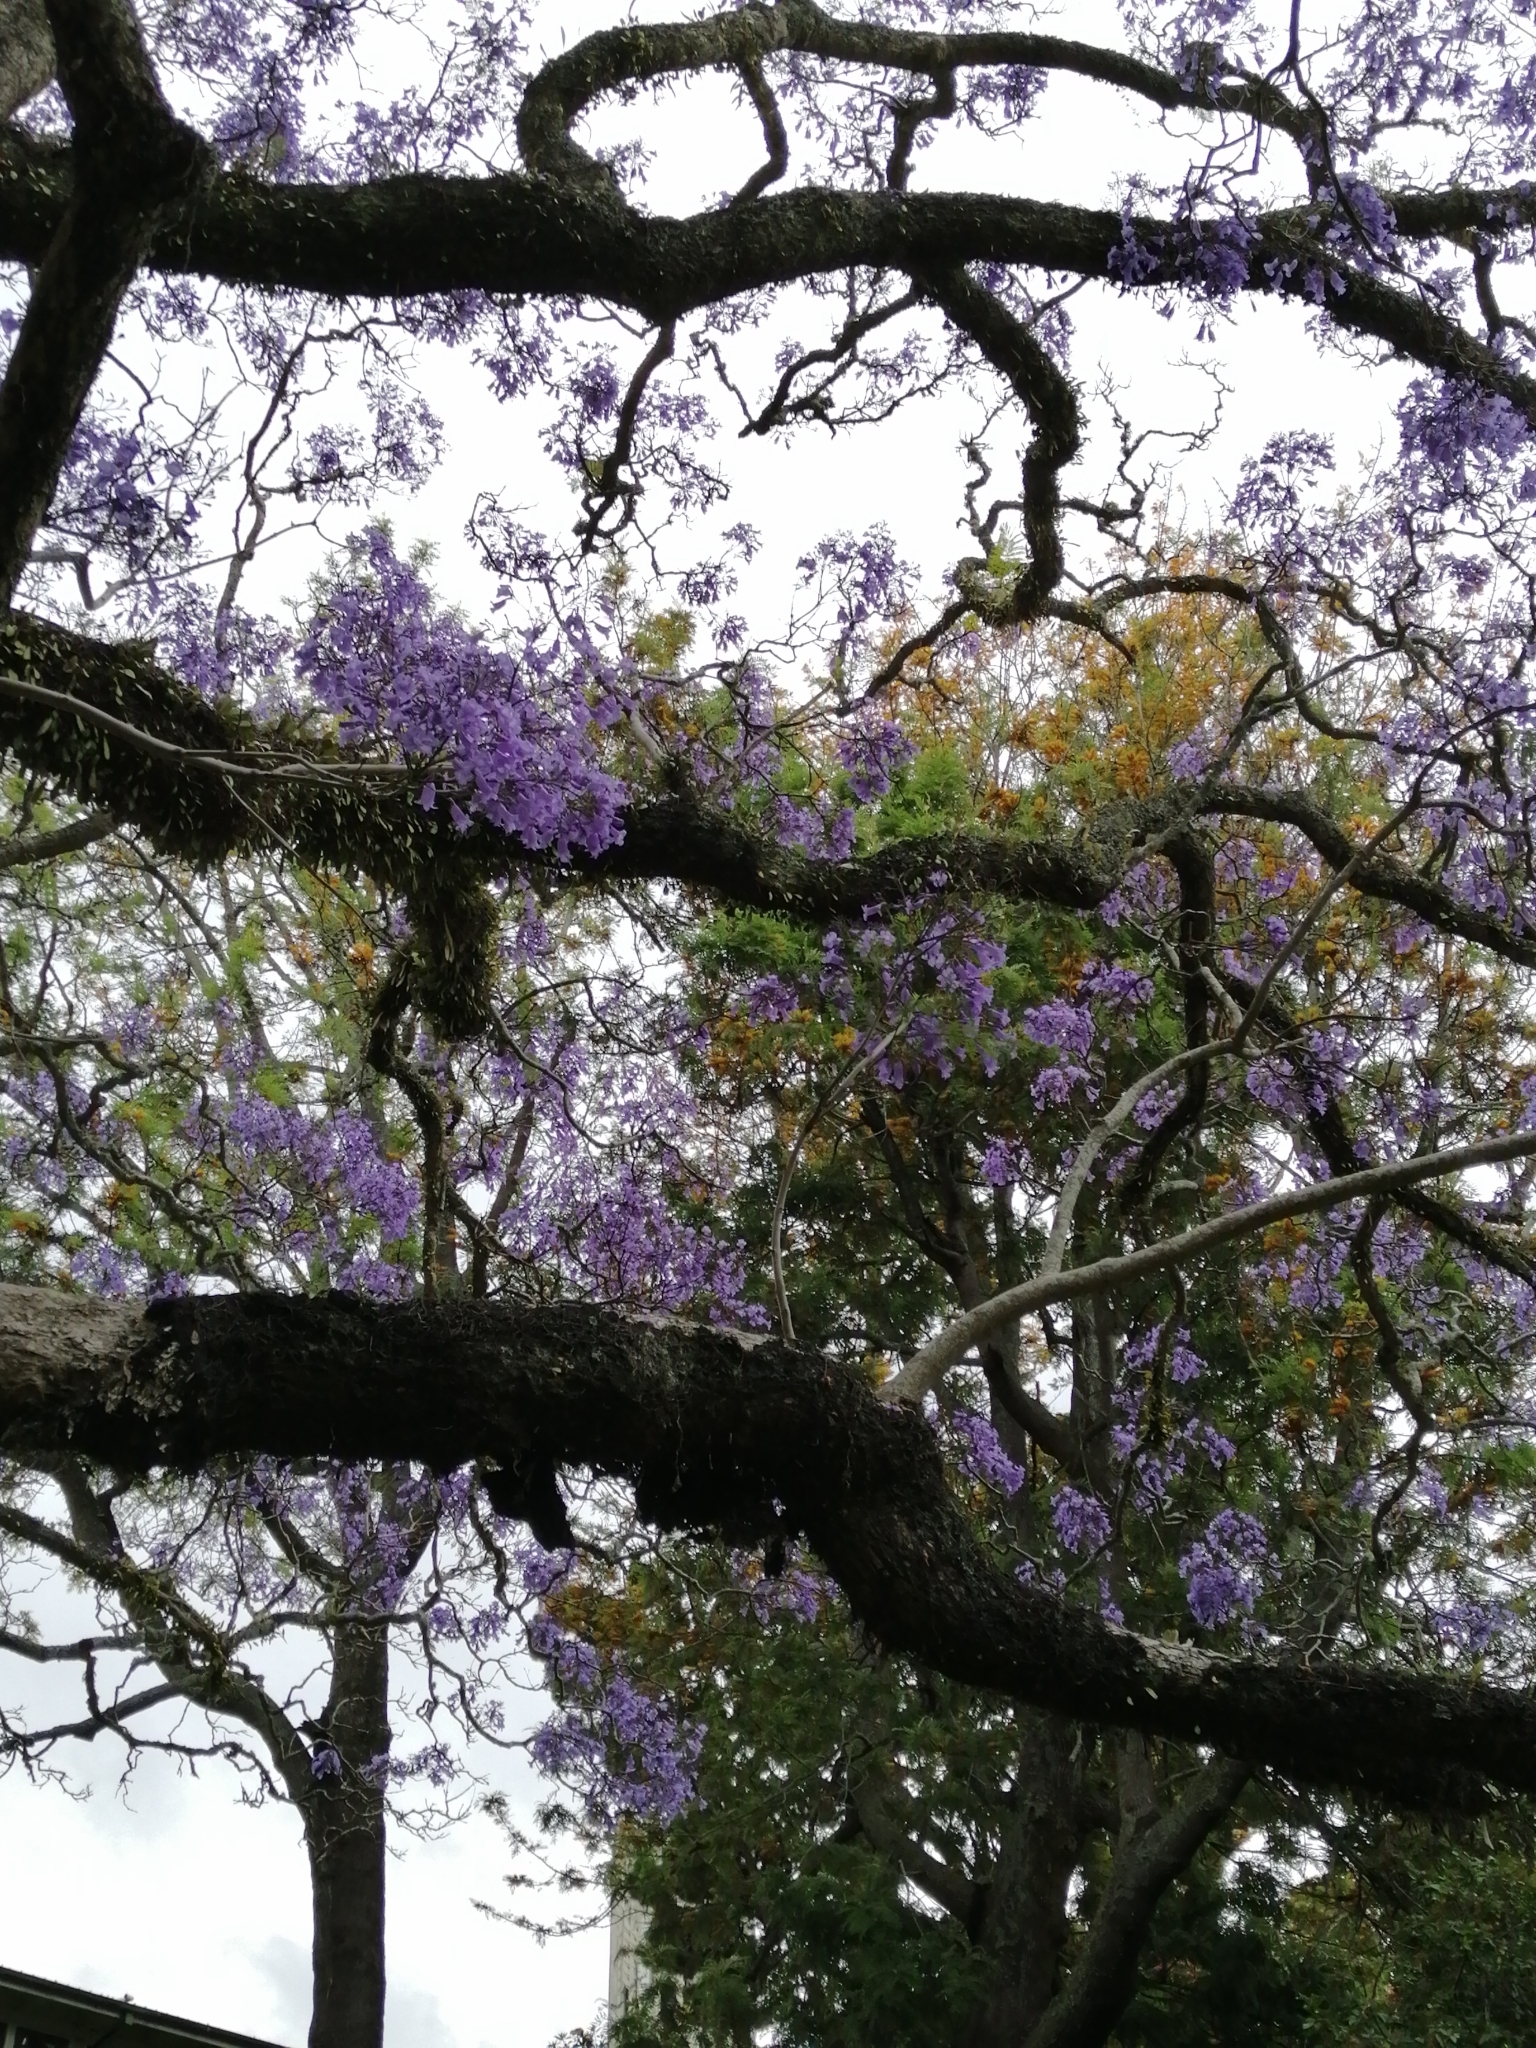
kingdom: Plantae
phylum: Tracheophyta
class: Polypodiopsida
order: Polypodiales
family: Polypodiaceae
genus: Pyrrosia
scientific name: Pyrrosia eleagnifolia
